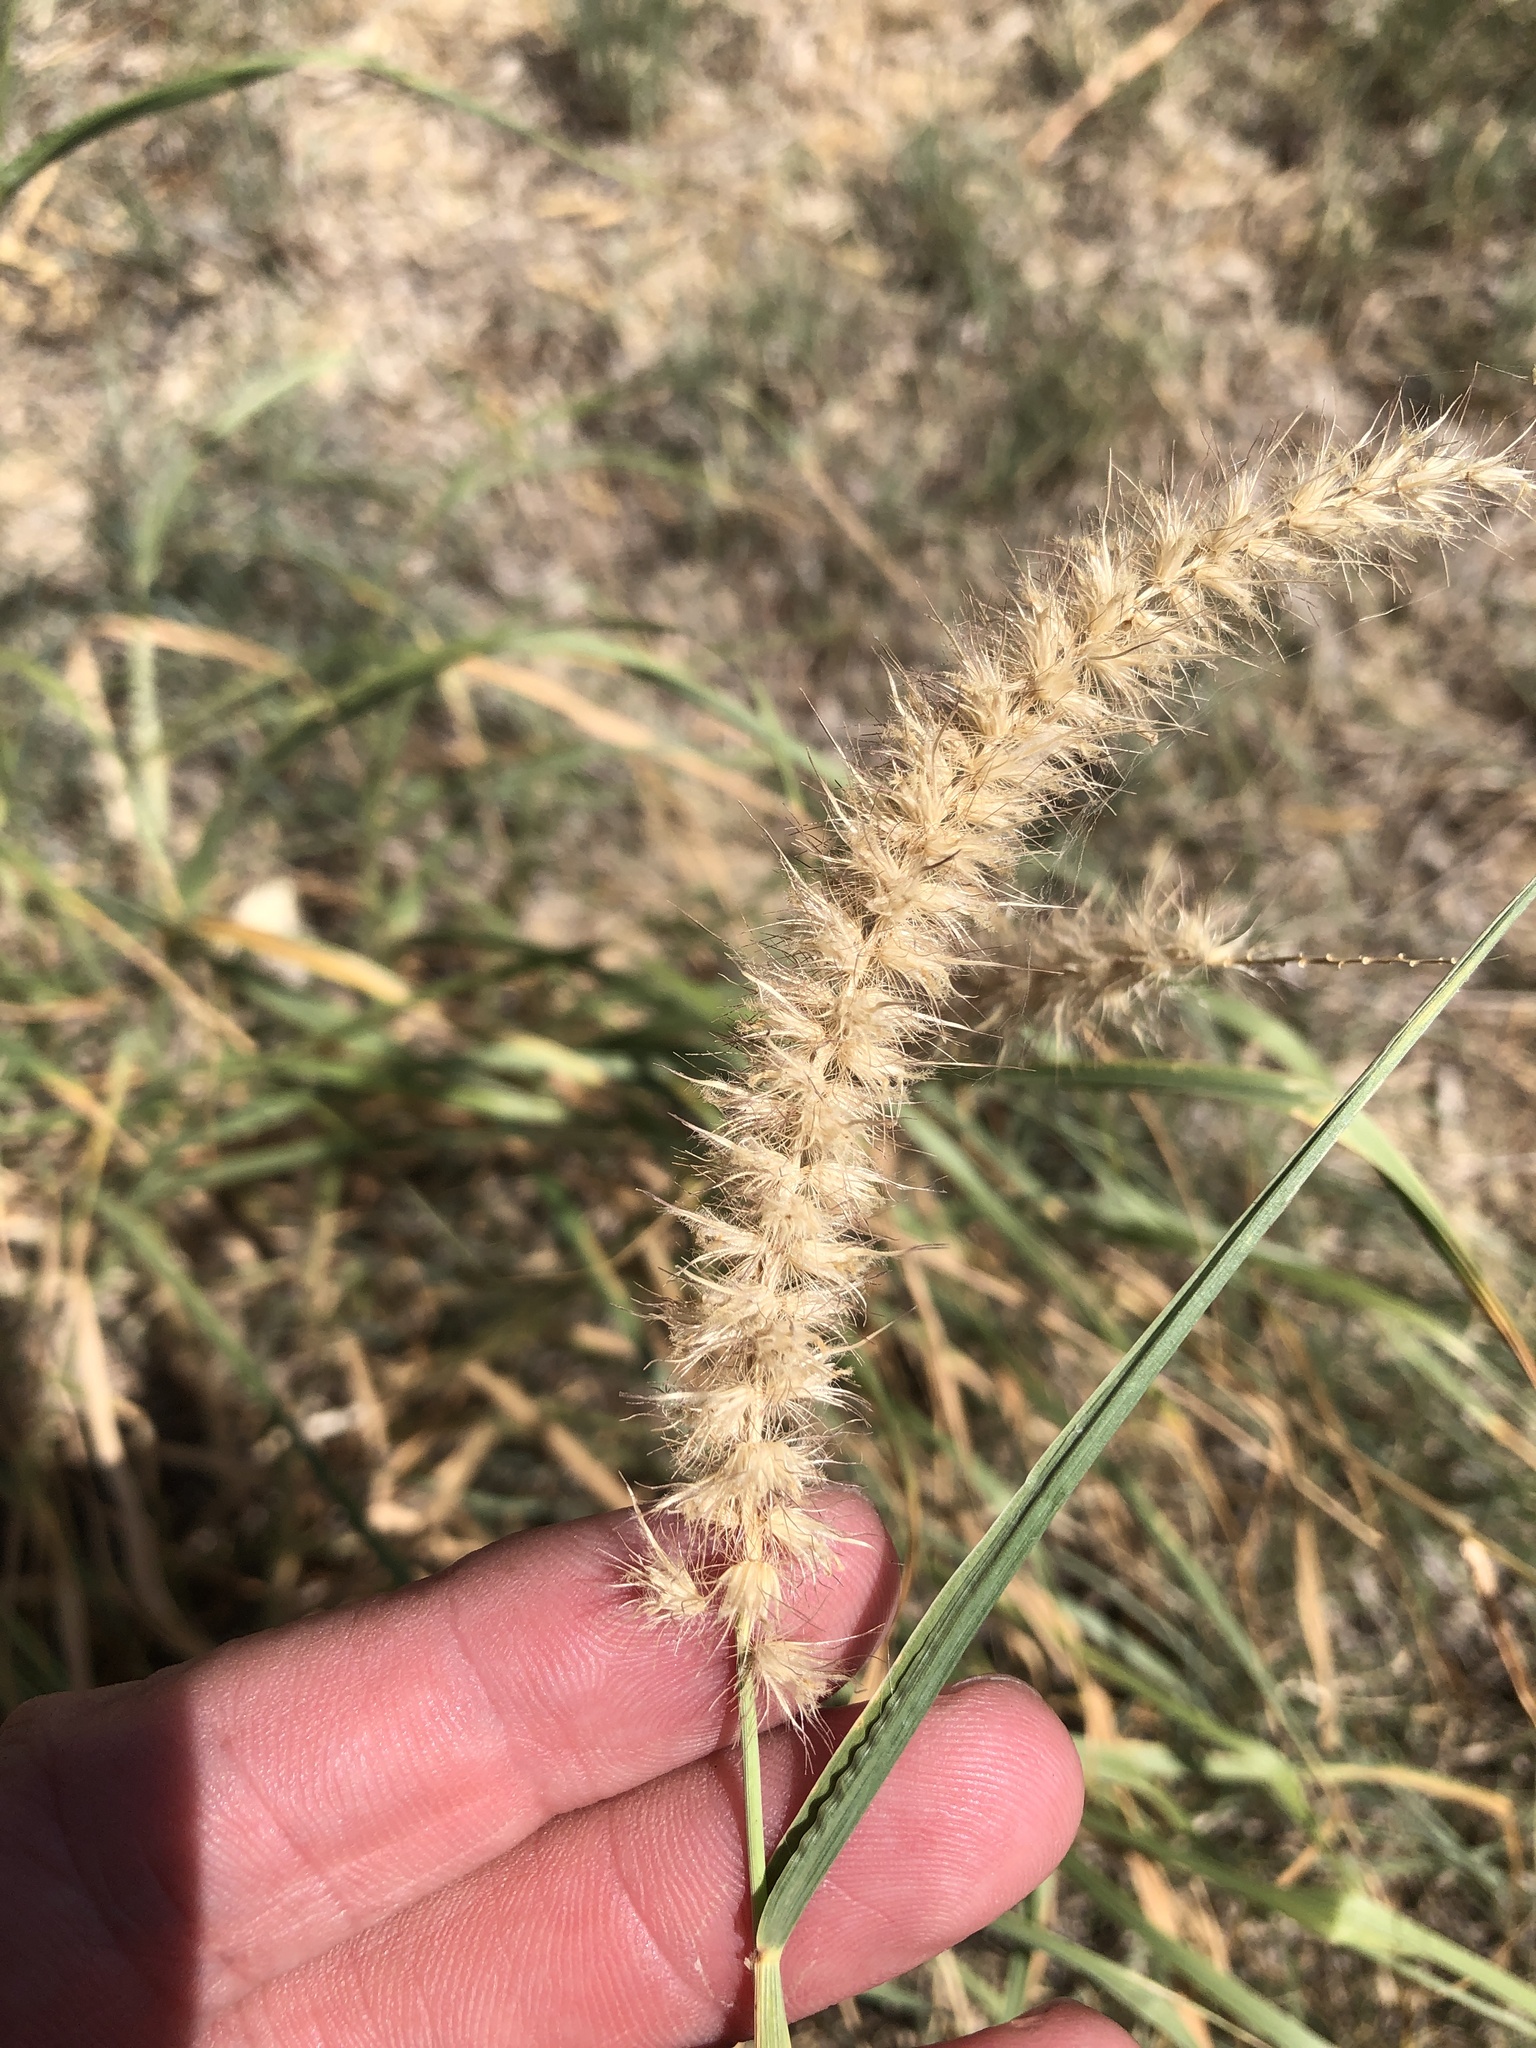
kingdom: Plantae
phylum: Tracheophyta
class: Liliopsida
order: Poales
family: Poaceae
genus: Cenchrus
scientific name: Cenchrus ciliaris
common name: Buffelgrass
